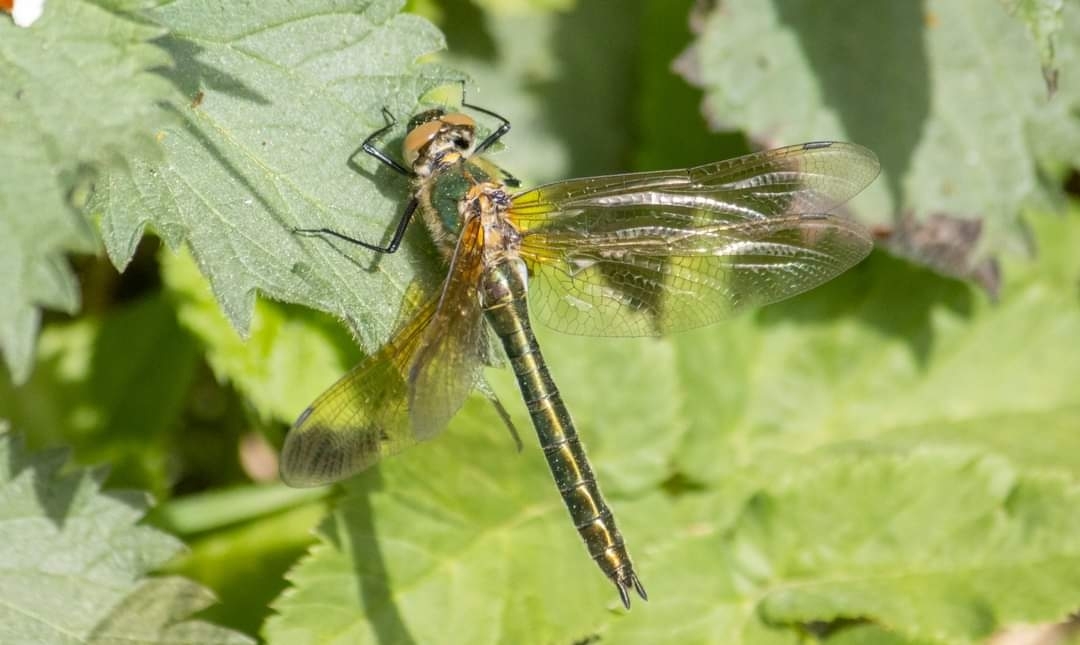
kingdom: Animalia
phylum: Arthropoda
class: Insecta
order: Odonata
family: Corduliidae
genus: Cordulia
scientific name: Cordulia aenea
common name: Downy emerald
